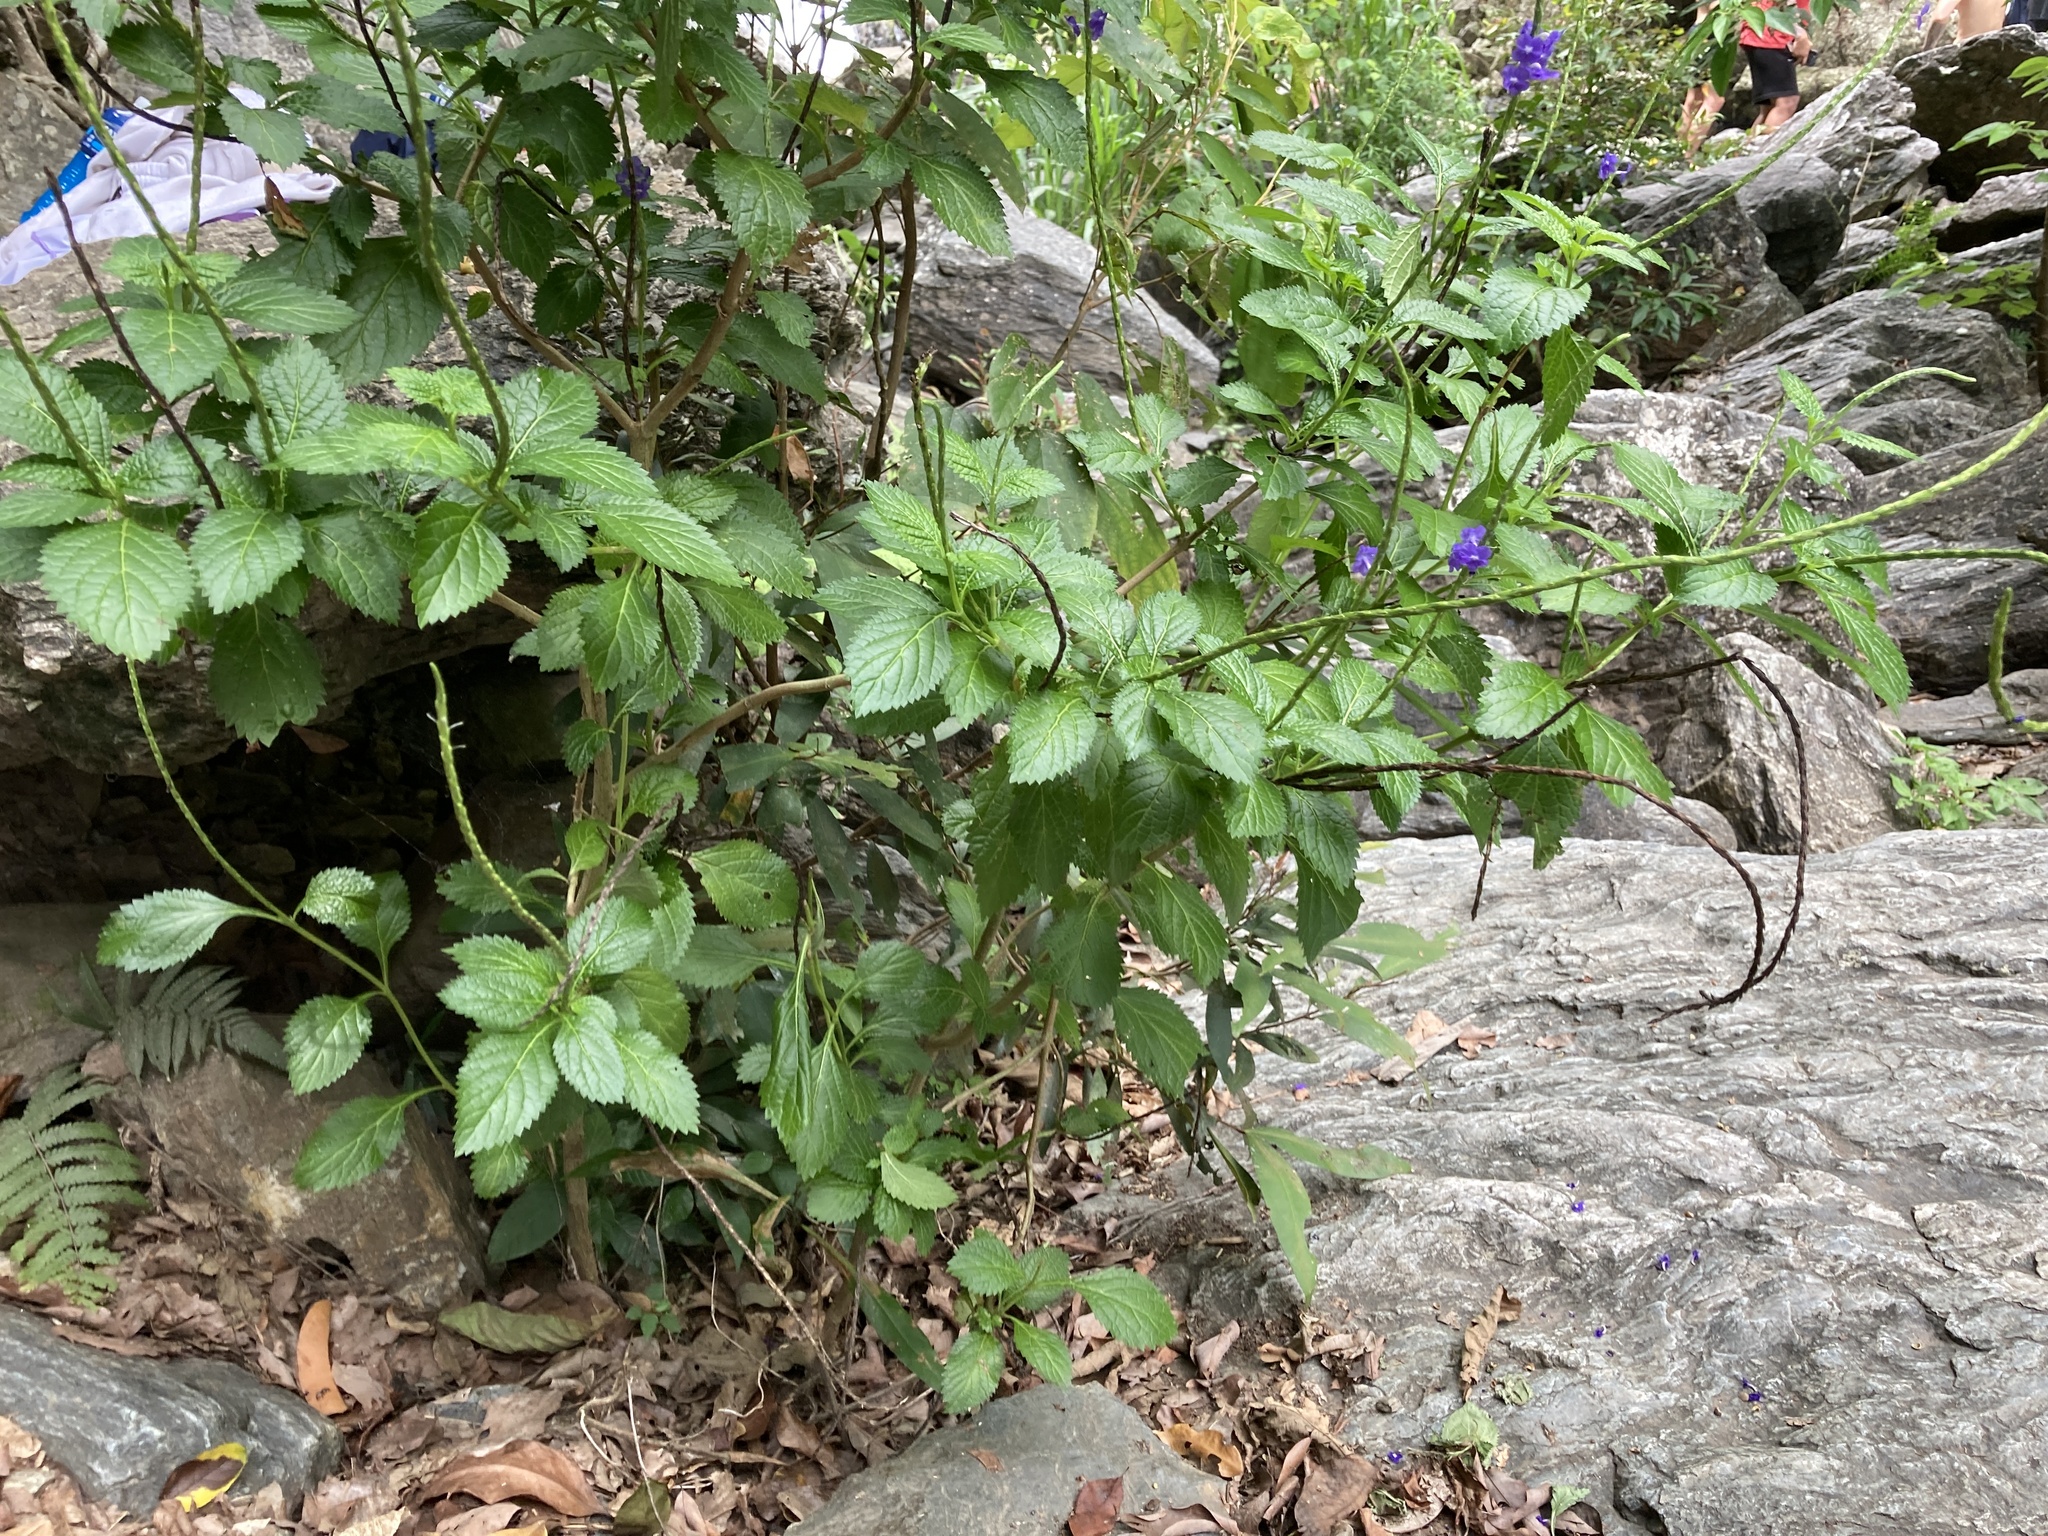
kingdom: Plantae
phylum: Tracheophyta
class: Magnoliopsida
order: Lamiales
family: Verbenaceae
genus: Stachytarpheta
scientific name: Stachytarpheta cayennensis
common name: Cayenne porterweed
